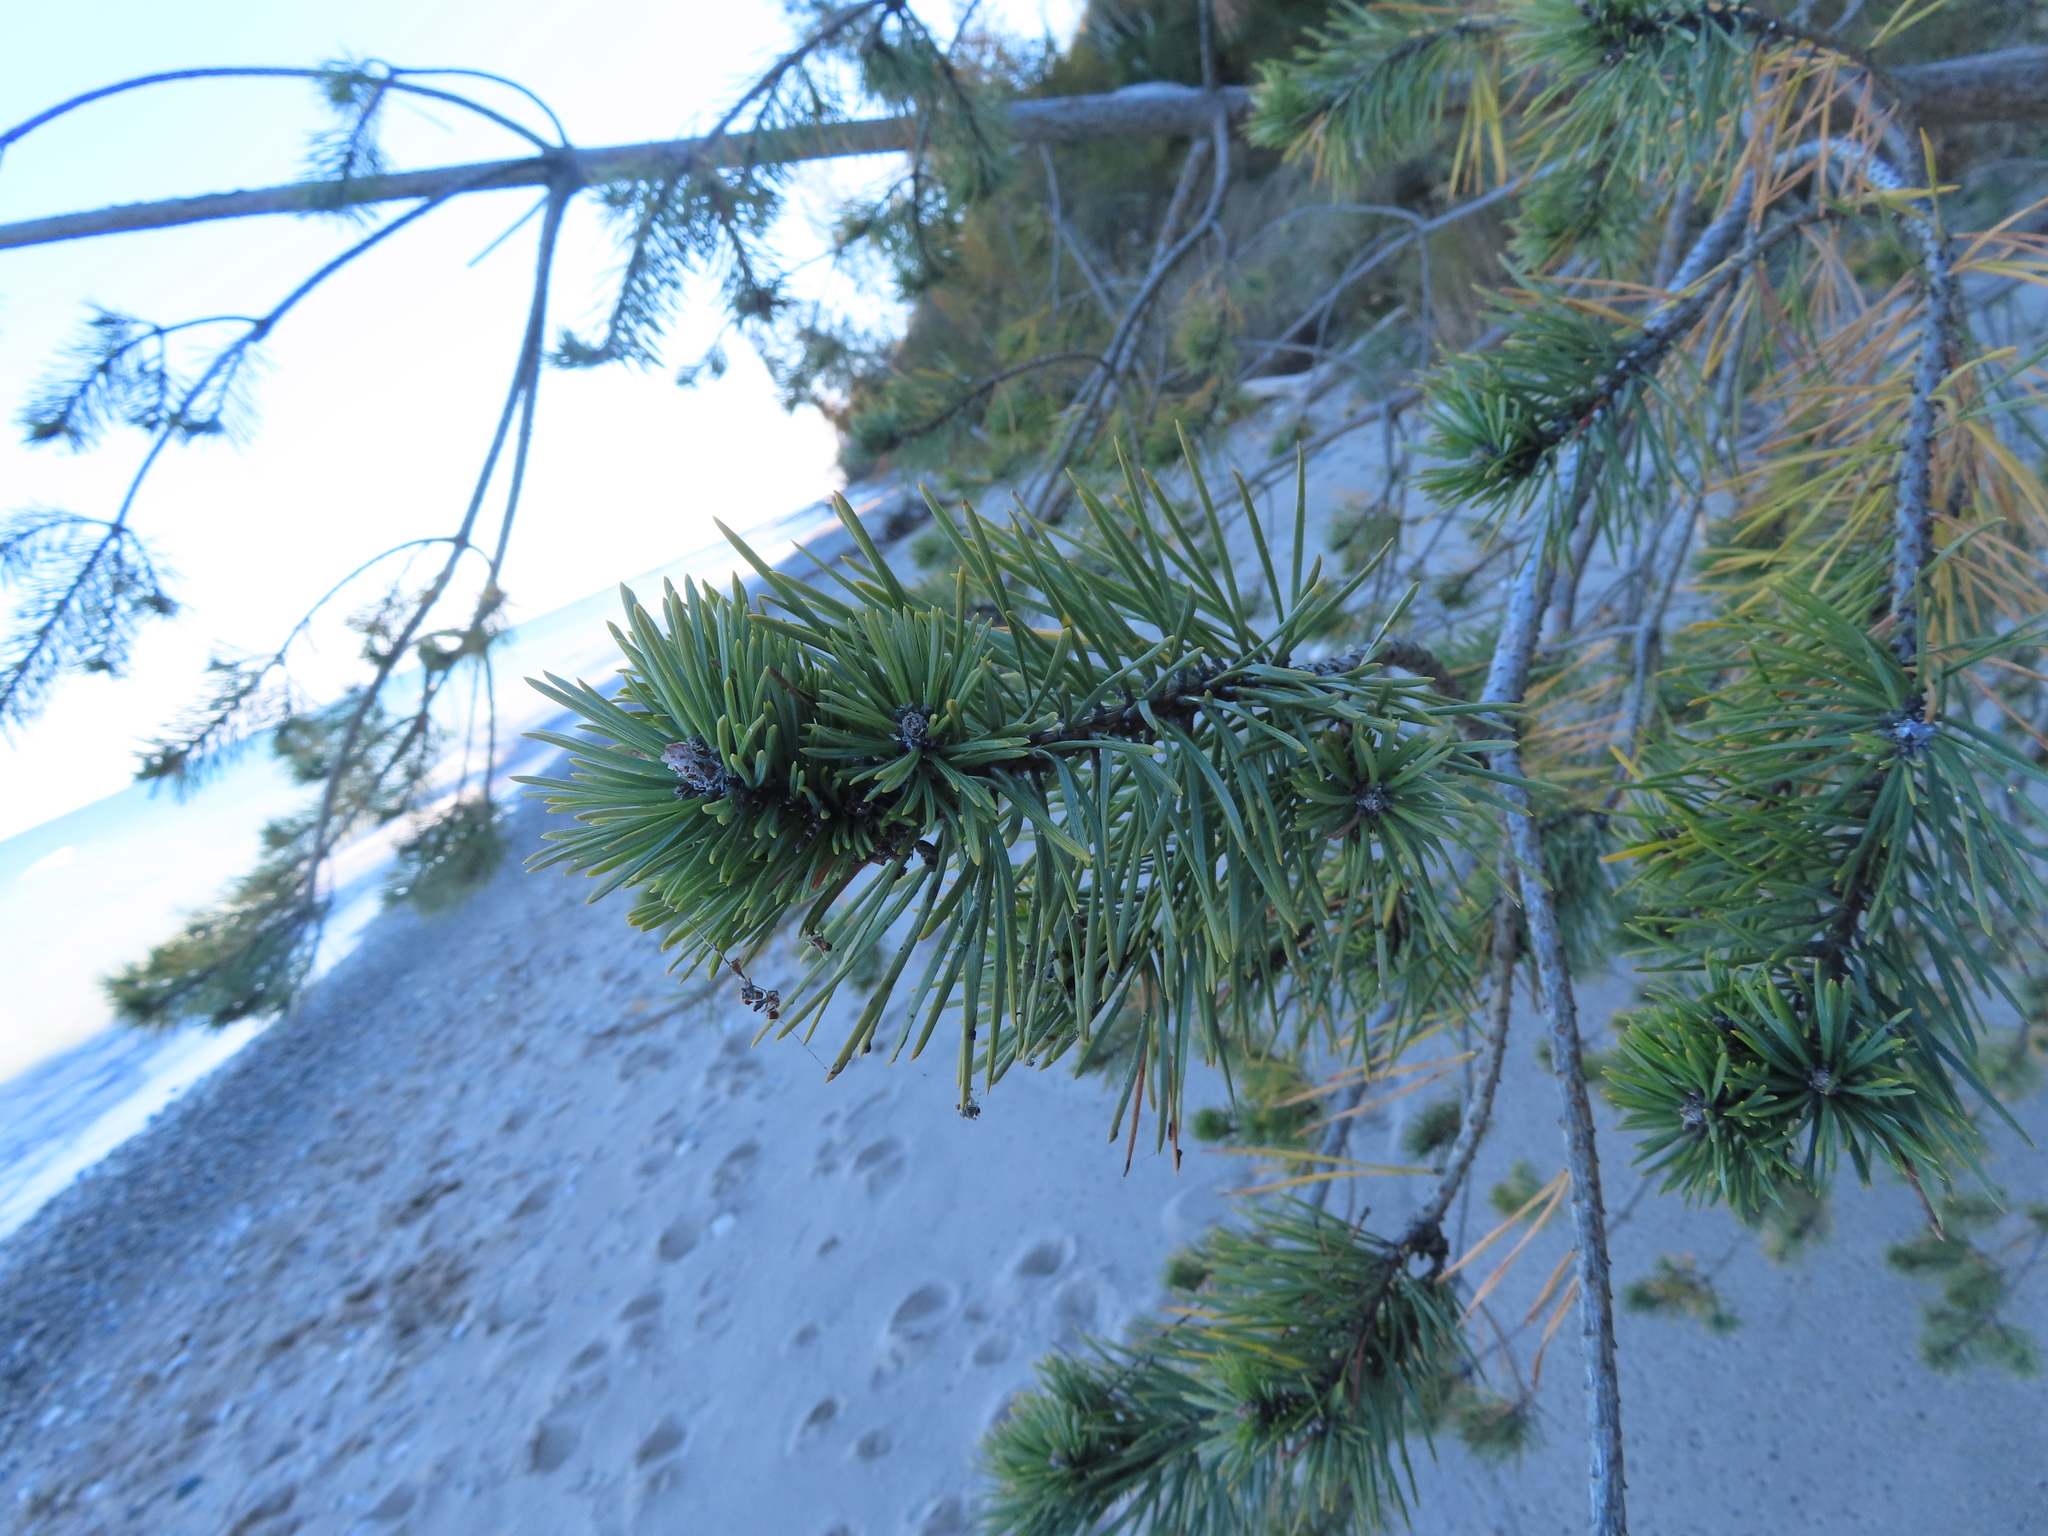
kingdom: Plantae
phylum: Tracheophyta
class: Pinopsida
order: Pinales
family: Pinaceae
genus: Pinus
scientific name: Pinus banksiana
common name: Jack pine
